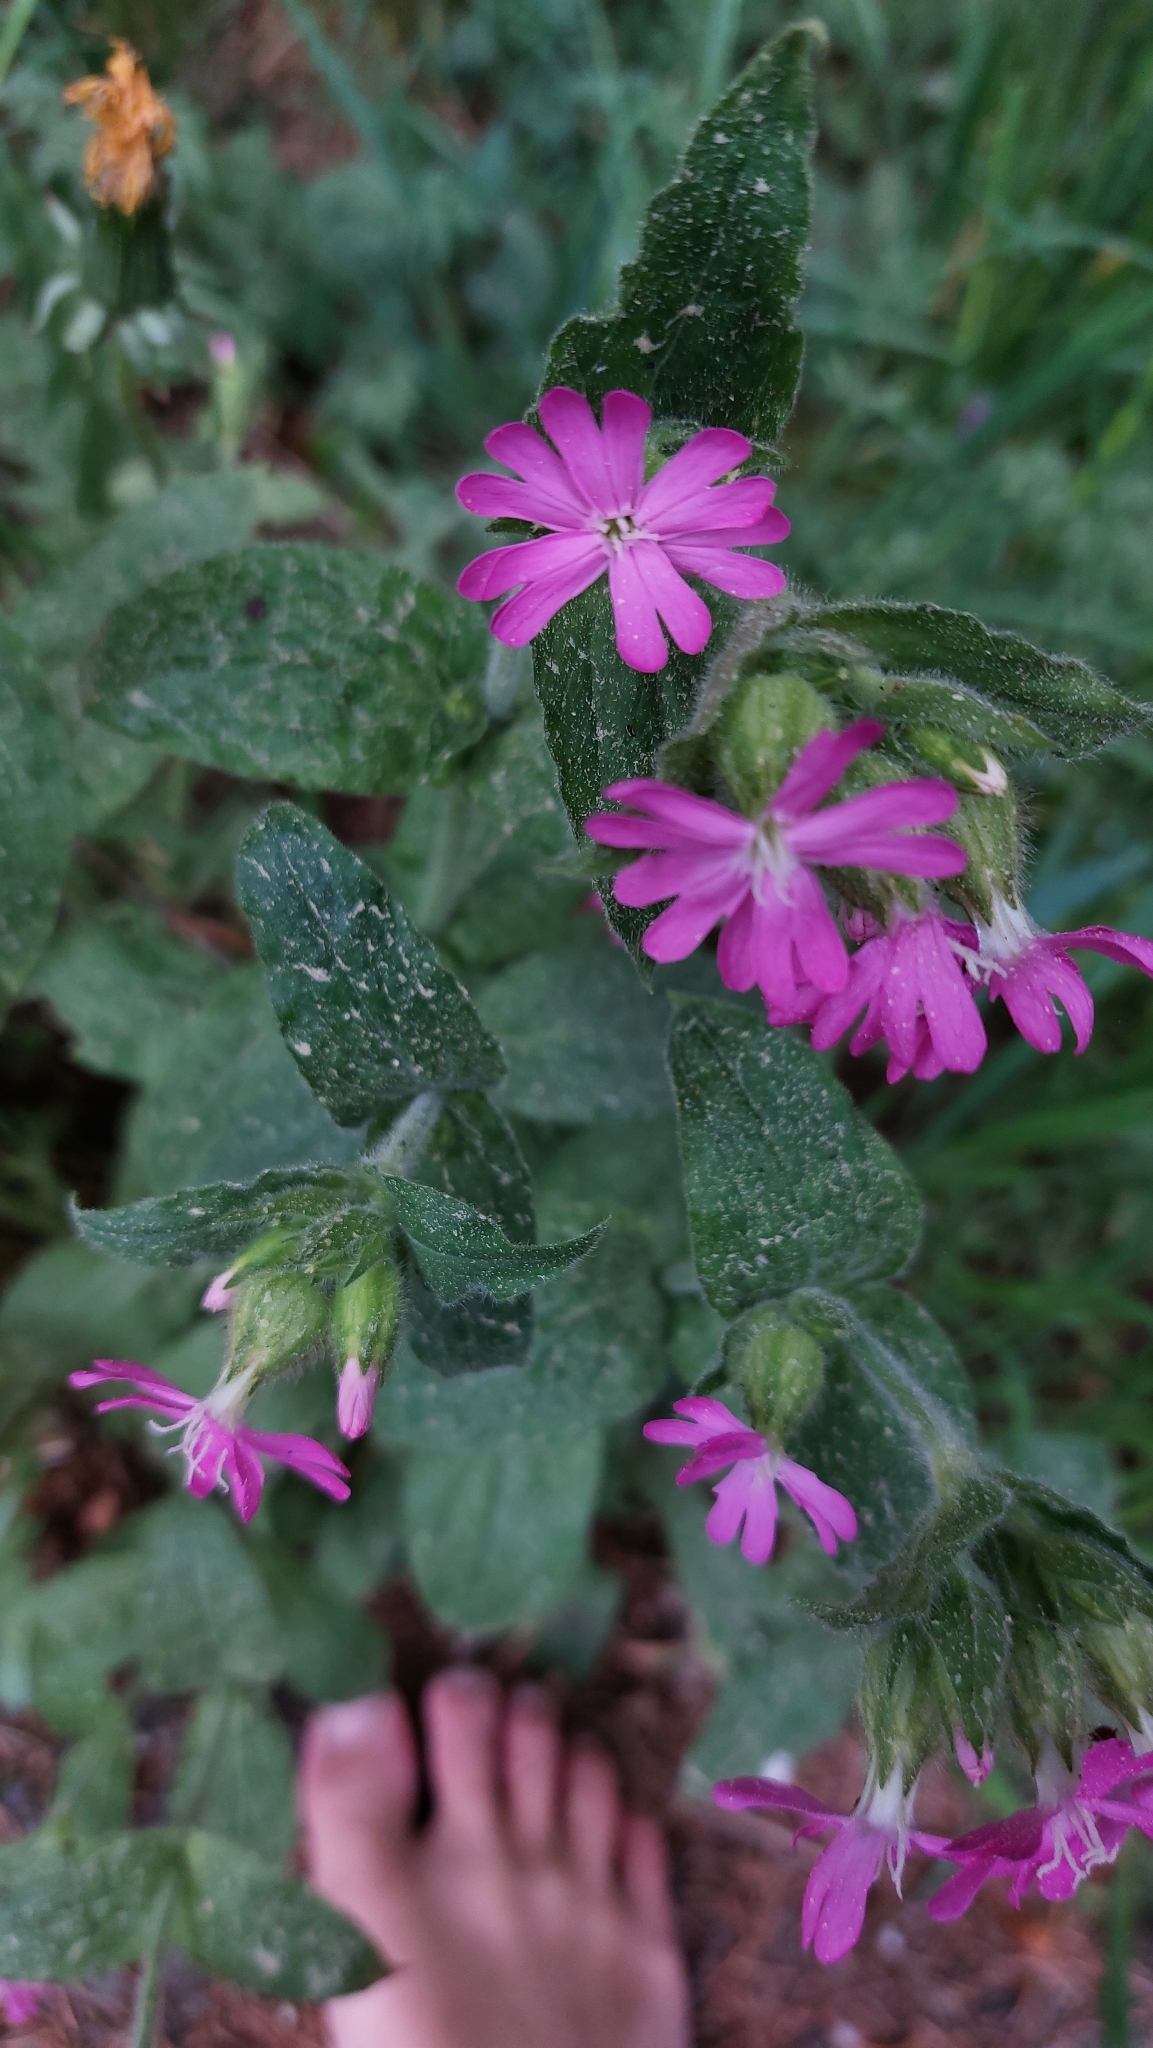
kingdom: Plantae
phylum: Tracheophyta
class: Magnoliopsida
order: Caryophyllales
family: Caryophyllaceae
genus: Silene
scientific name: Silene dioica
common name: Red campion
